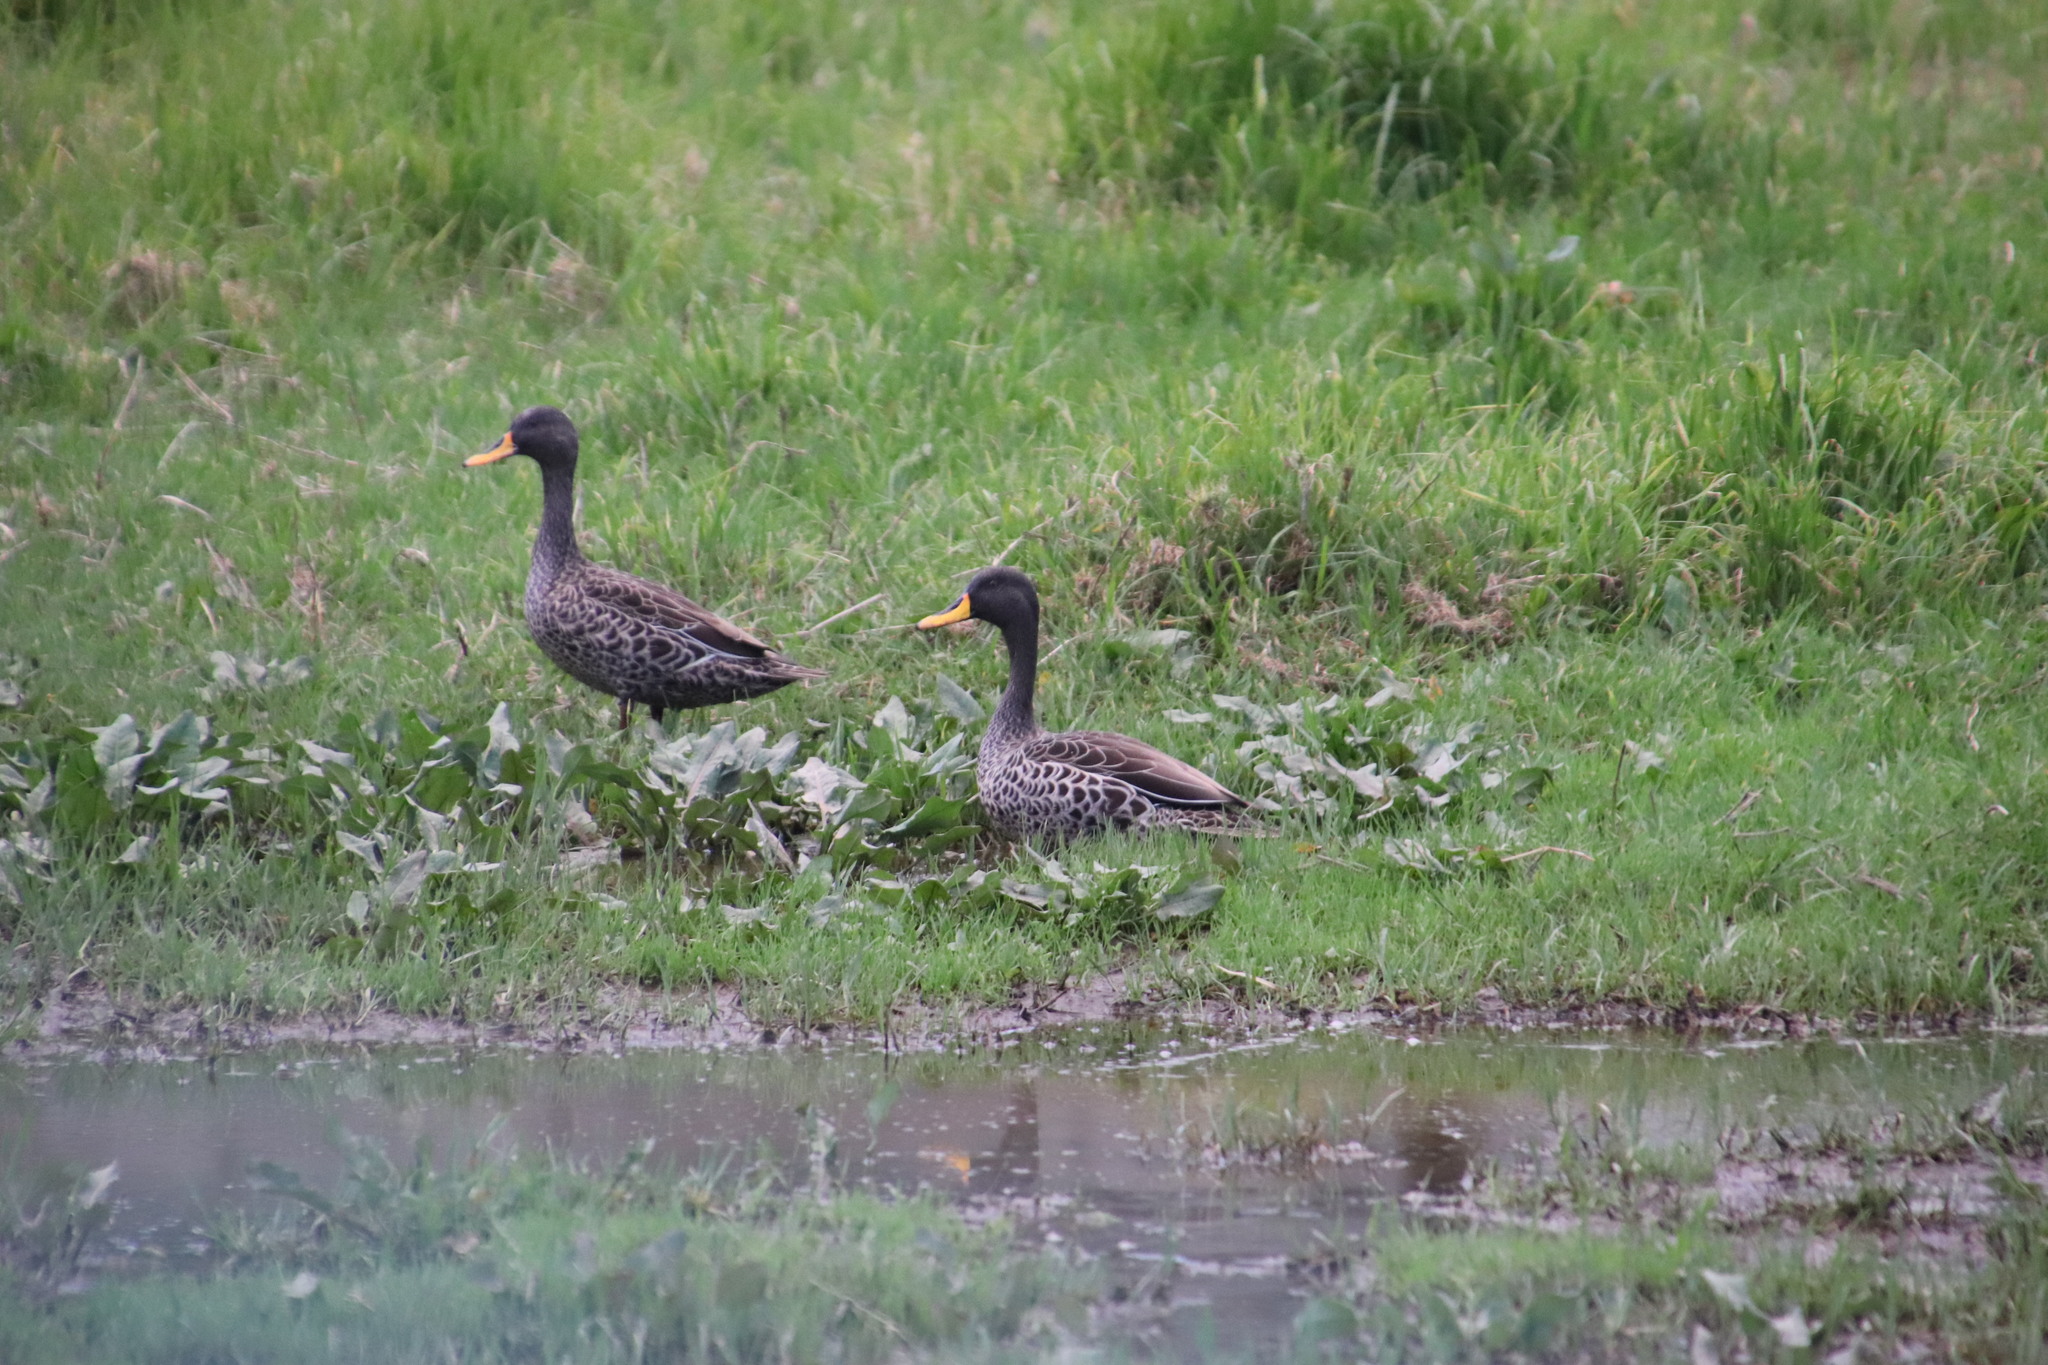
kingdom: Animalia
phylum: Chordata
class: Aves
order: Anseriformes
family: Anatidae
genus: Anas
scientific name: Anas undulata
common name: Yellow-billed duck
